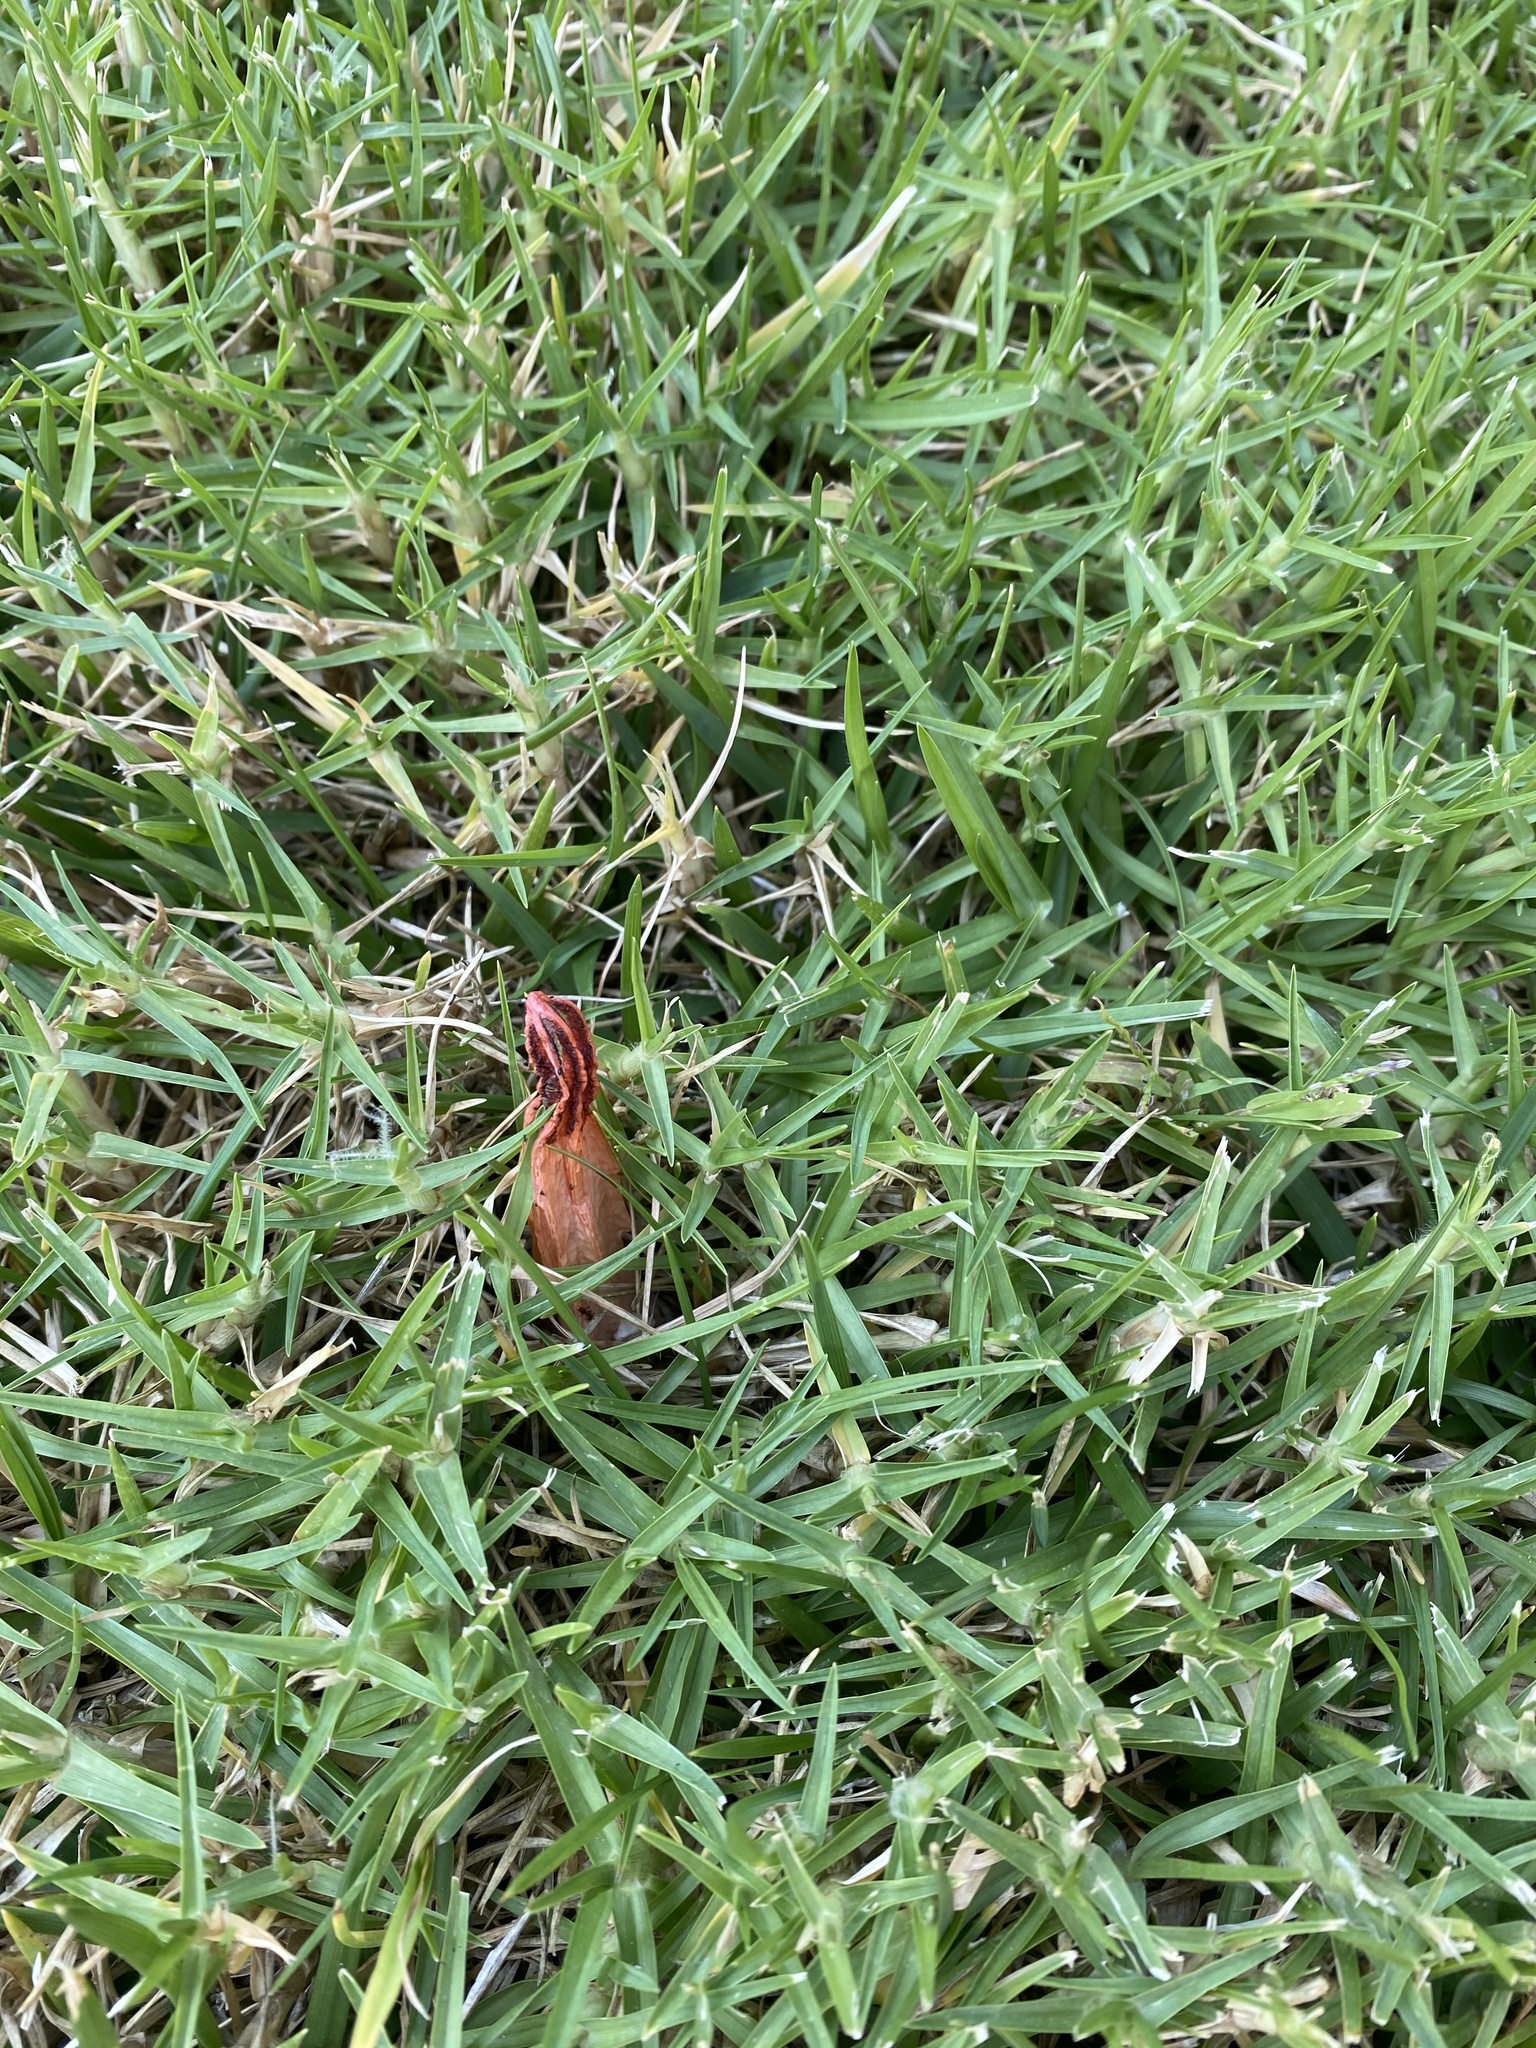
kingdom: Fungi
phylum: Basidiomycota
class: Agaricomycetes
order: Phallales
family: Phallaceae
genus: Lysurus
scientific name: Lysurus mokusin
